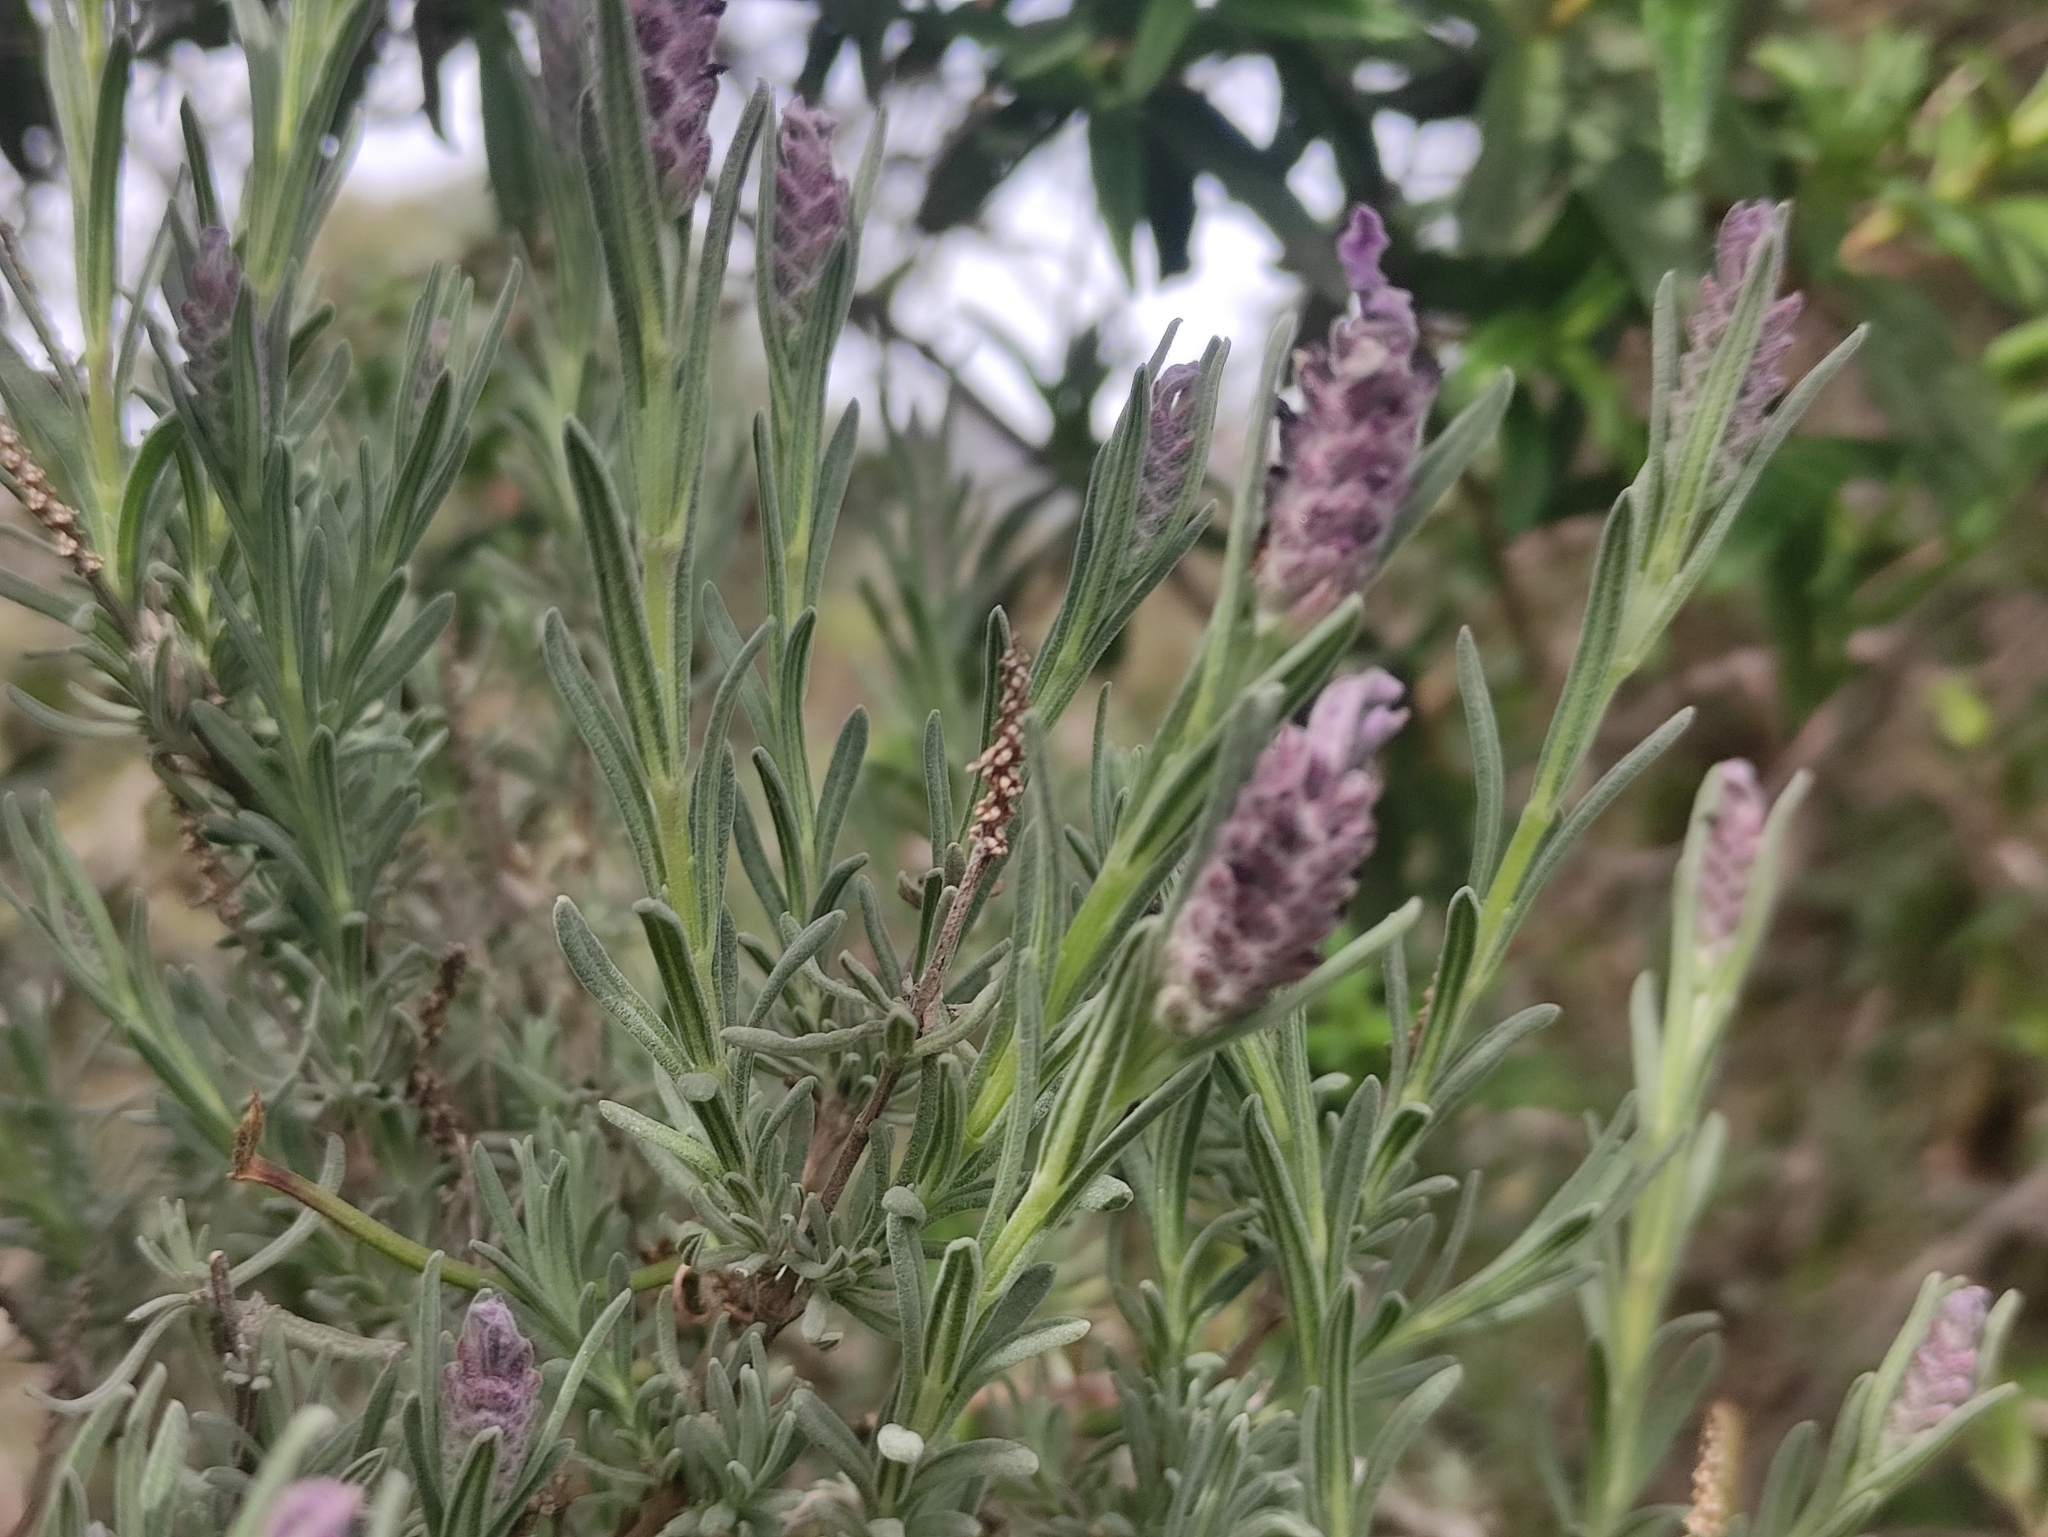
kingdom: Plantae
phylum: Tracheophyta
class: Magnoliopsida
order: Lamiales
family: Lamiaceae
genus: Lavandula
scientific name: Lavandula stoechas
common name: French lavender
